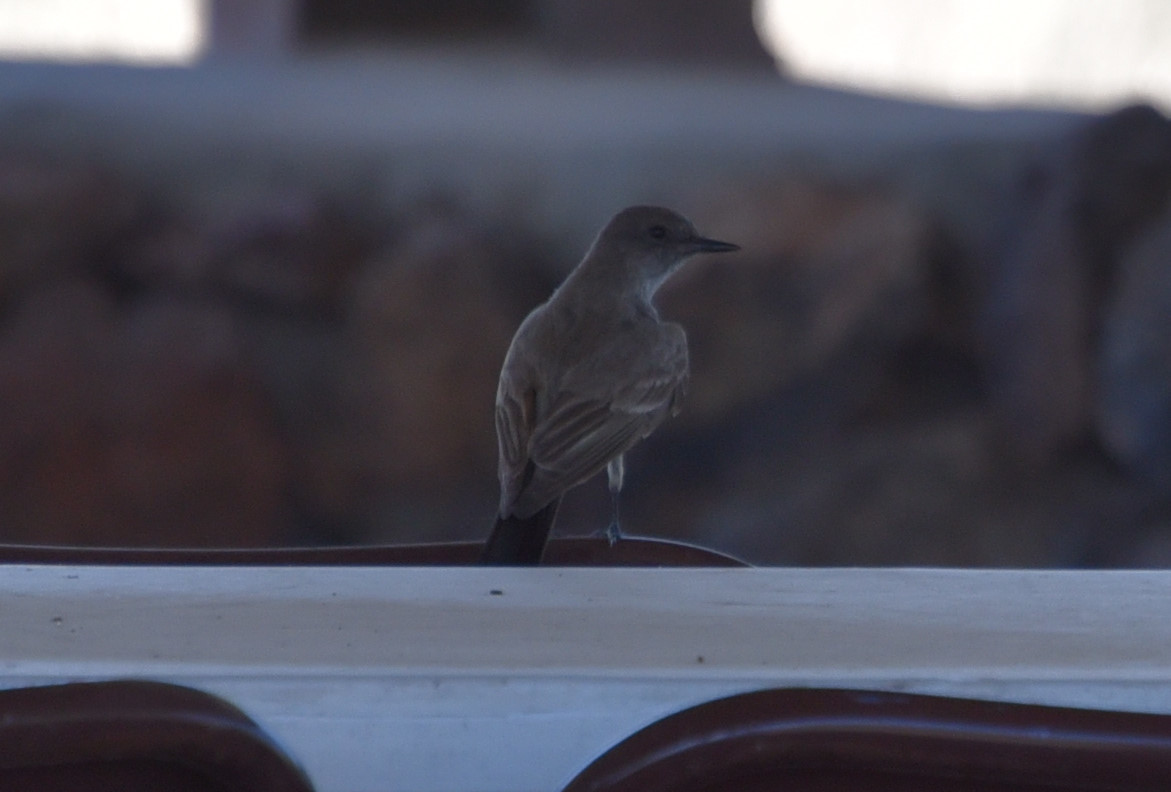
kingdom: Animalia
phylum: Chordata
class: Aves
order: Passeriformes
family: Tyrannidae
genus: Sayornis
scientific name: Sayornis saya
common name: Say's phoebe
